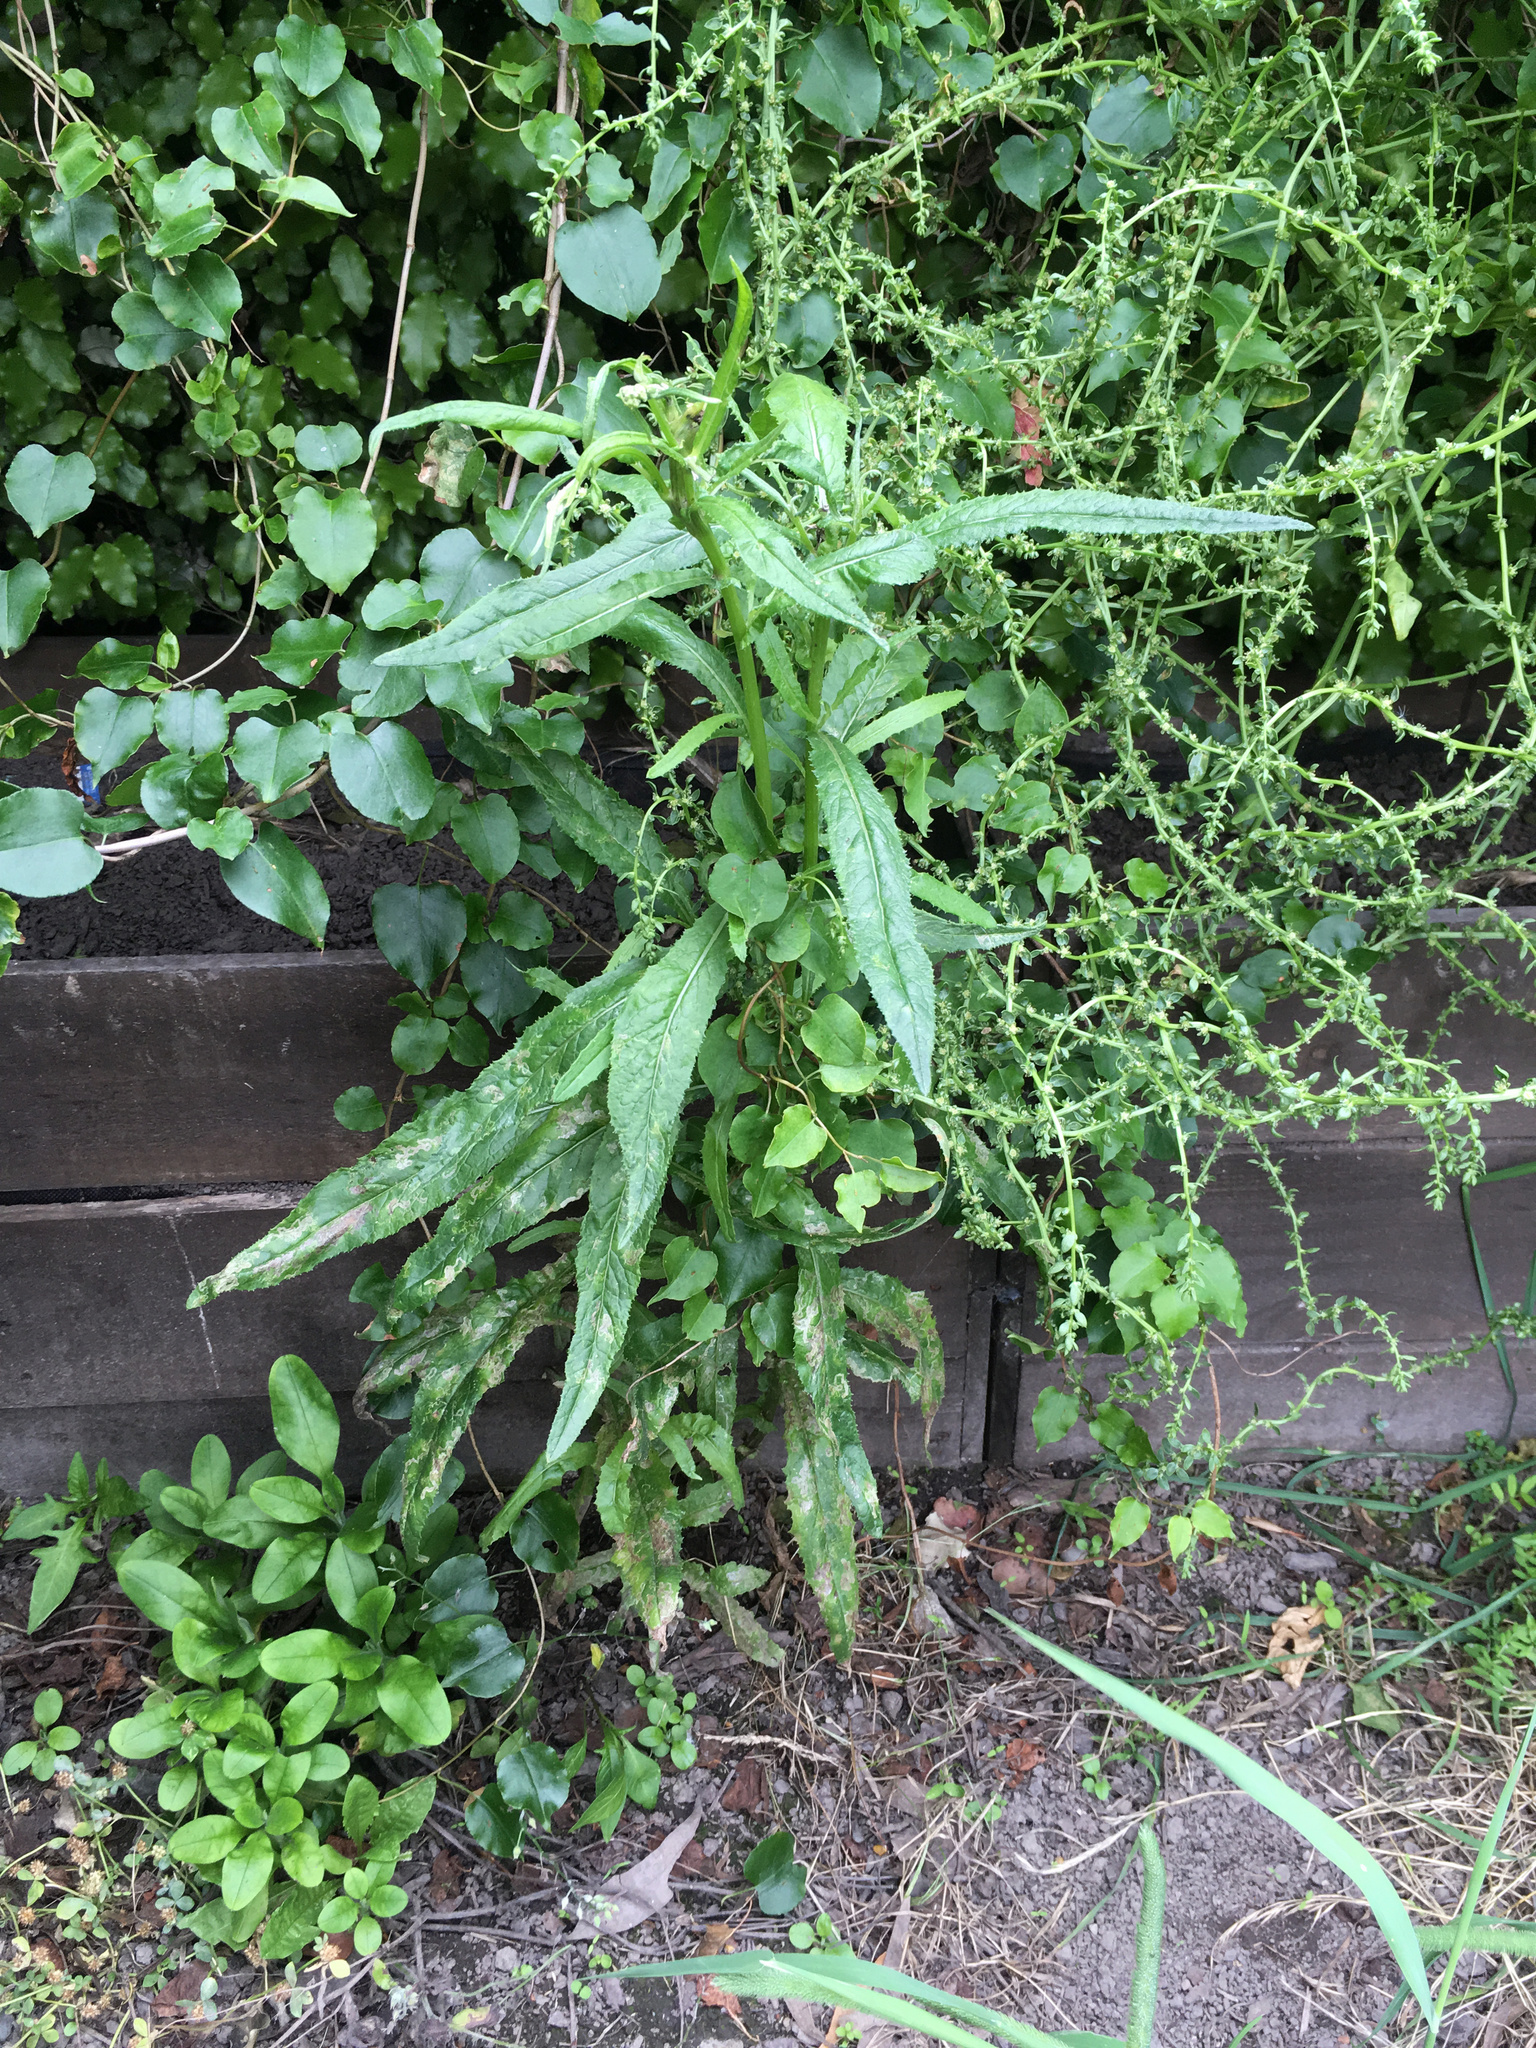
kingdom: Plantae
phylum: Tracheophyta
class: Magnoliopsida
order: Asterales
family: Asteraceae
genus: Senecio
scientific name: Senecio minimus
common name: Toothed fireweed
